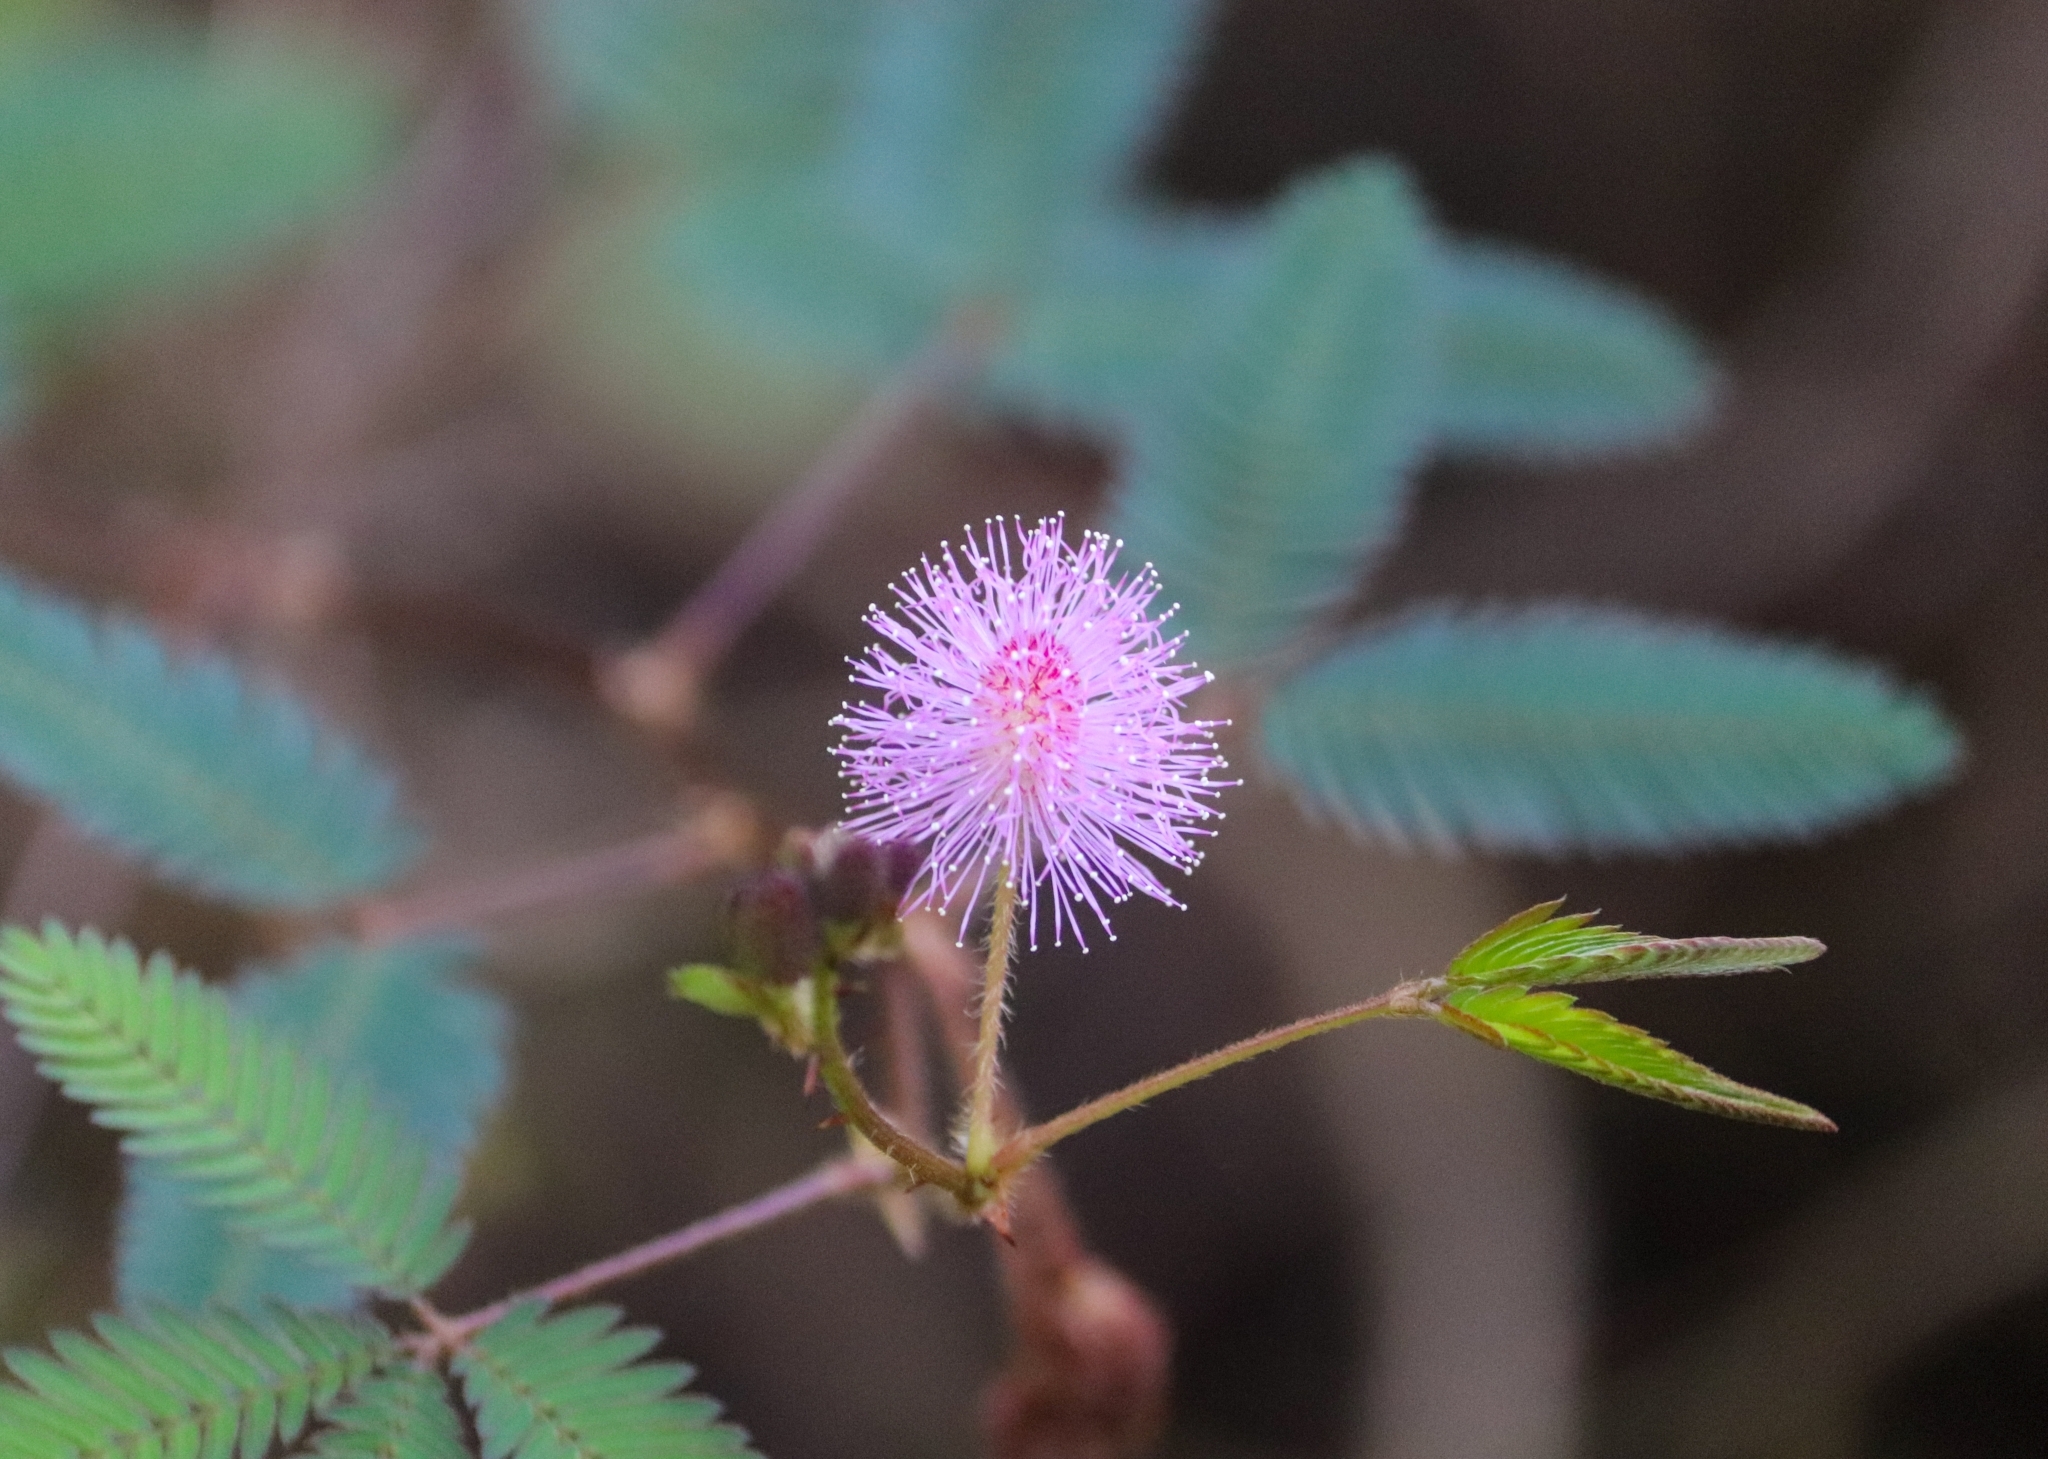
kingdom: Plantae
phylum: Tracheophyta
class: Magnoliopsida
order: Fabales
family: Fabaceae
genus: Mimosa
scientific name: Mimosa pudica
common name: Sensitive plant
